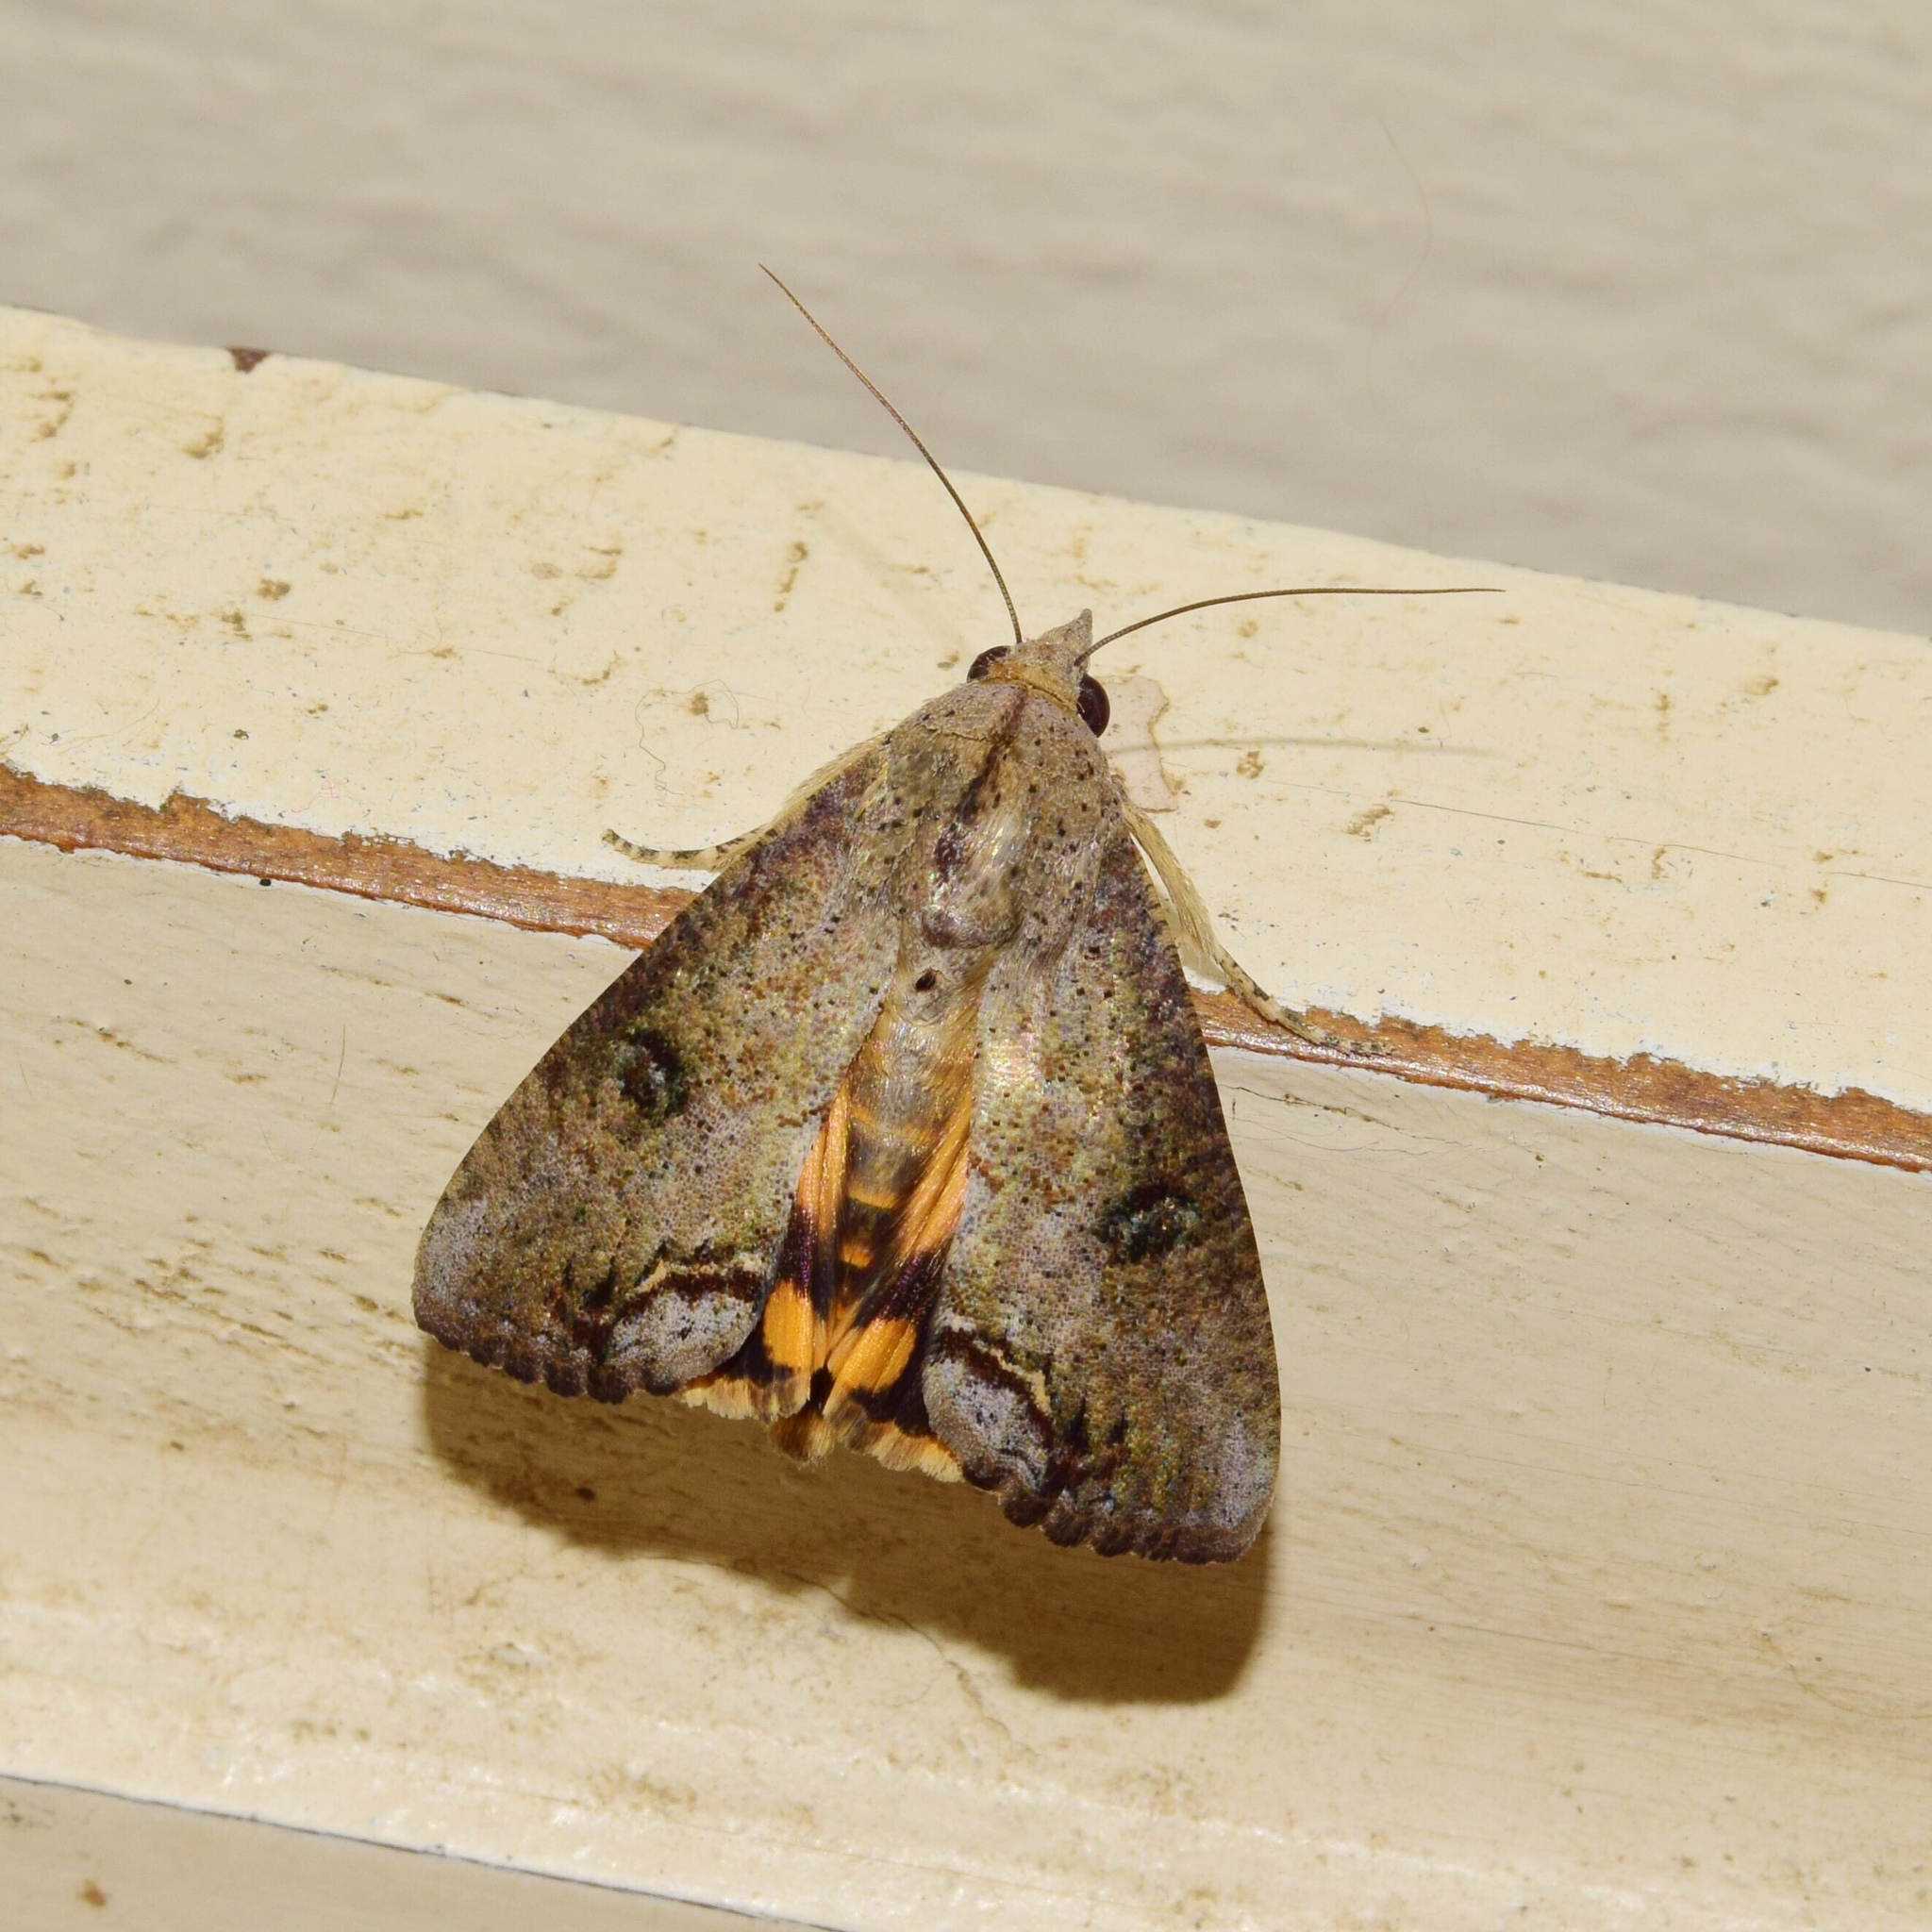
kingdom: Animalia
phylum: Arthropoda
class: Insecta
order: Lepidoptera
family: Erebidae
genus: Hypocala
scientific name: Hypocala deflorata
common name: Moth
